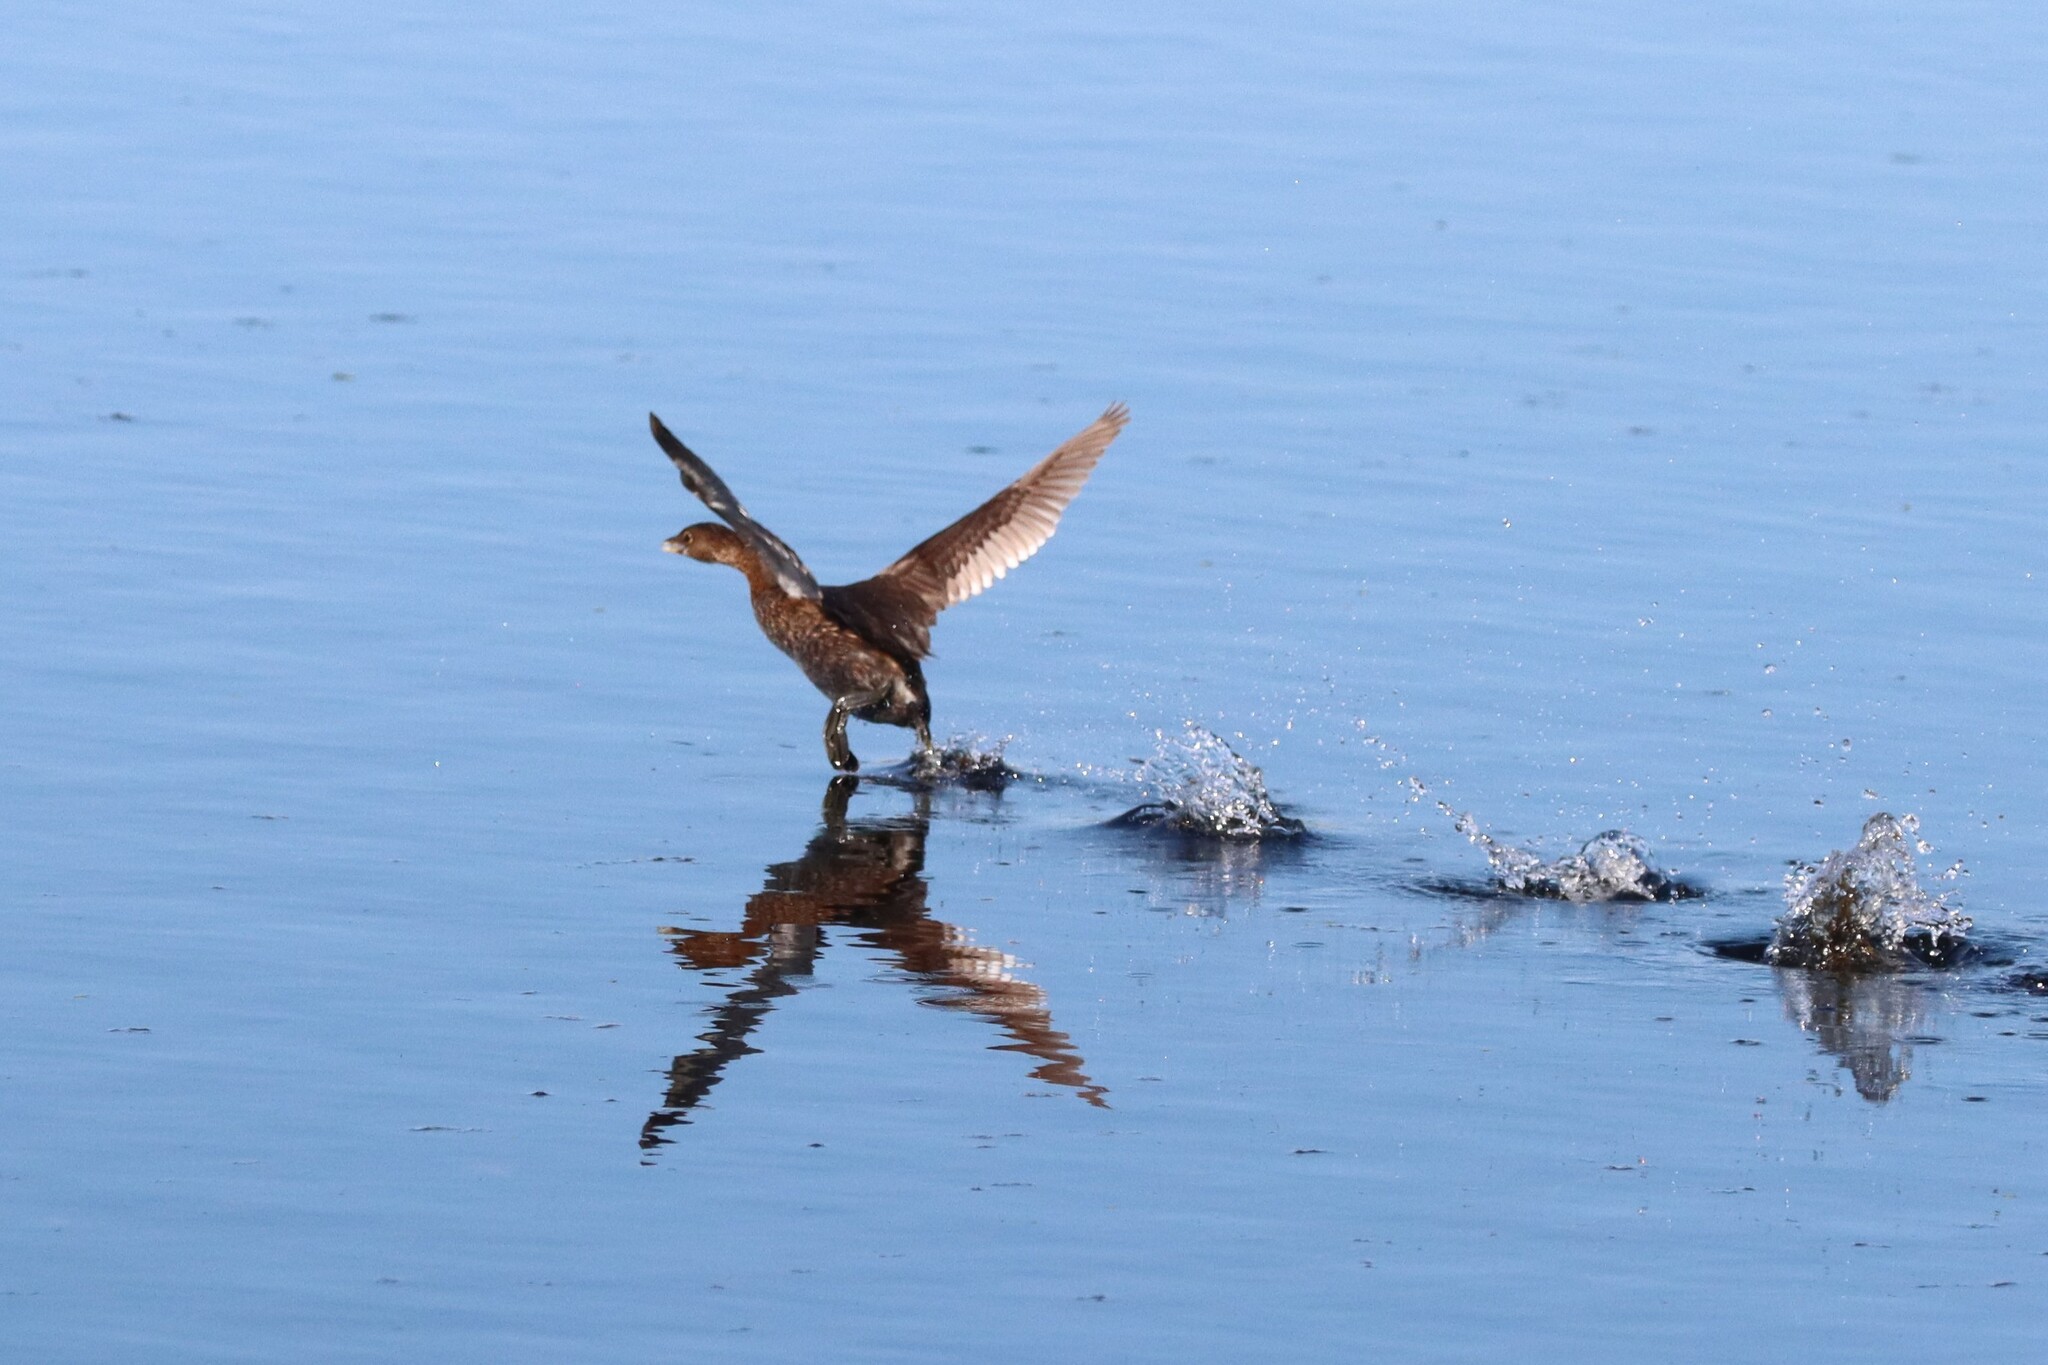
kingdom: Animalia
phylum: Chordata
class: Aves
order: Podicipediformes
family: Podicipedidae
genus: Podilymbus
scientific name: Podilymbus podiceps
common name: Pied-billed grebe
